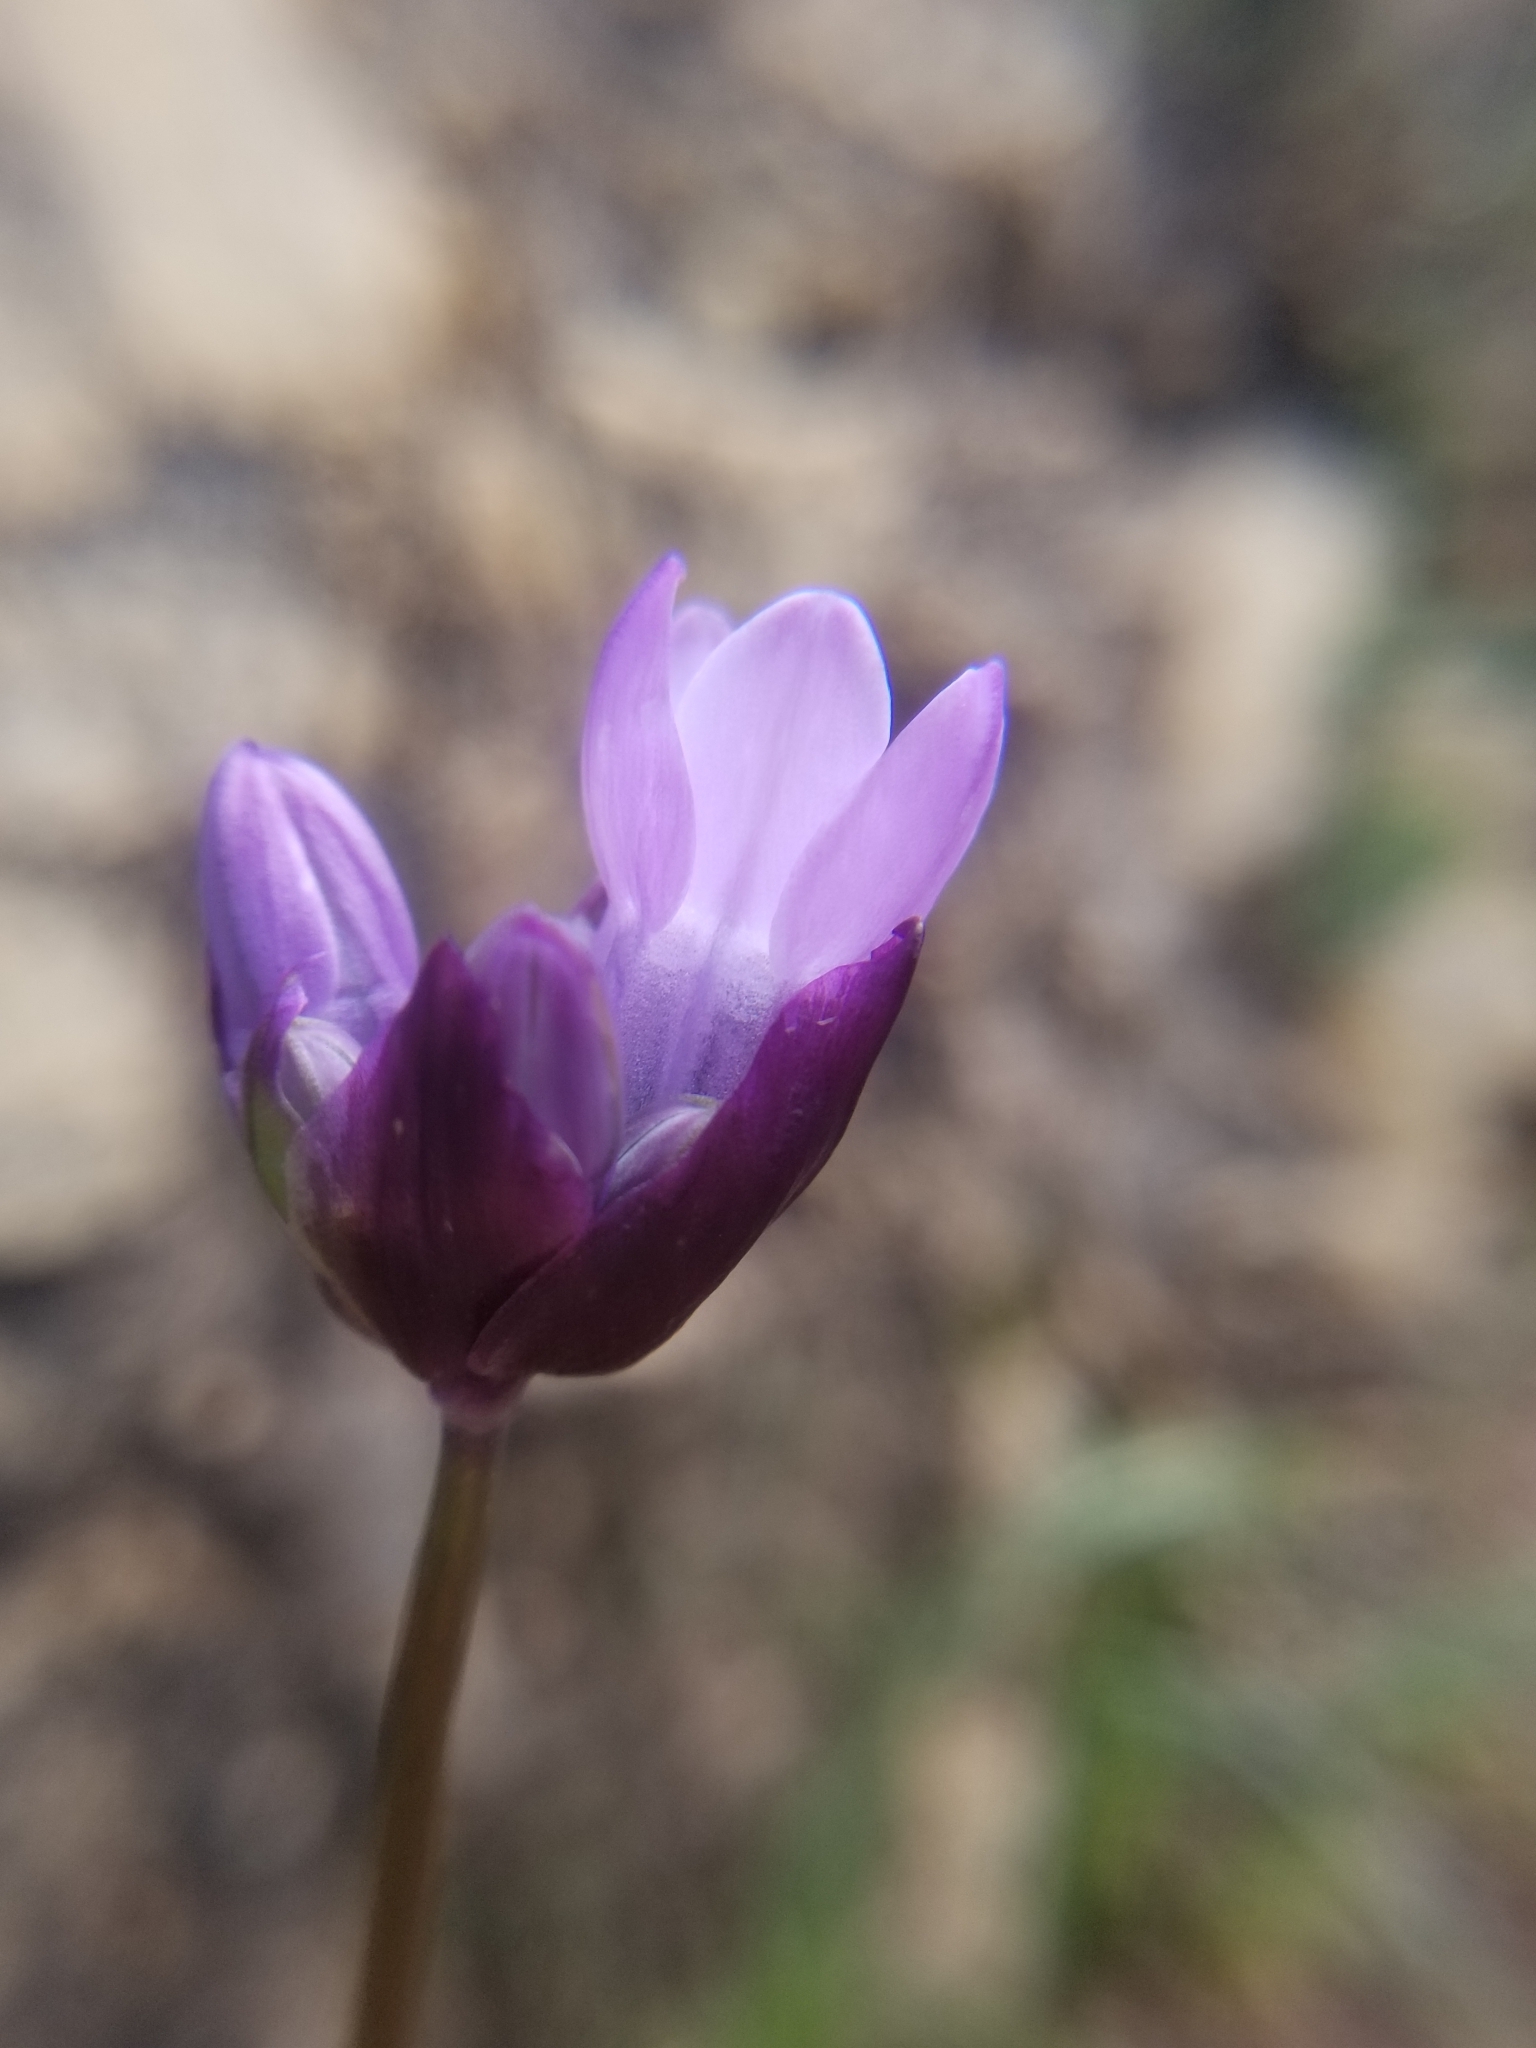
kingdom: Plantae
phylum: Tracheophyta
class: Liliopsida
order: Asparagales
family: Asparagaceae
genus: Dipterostemon
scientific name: Dipterostemon capitatus
